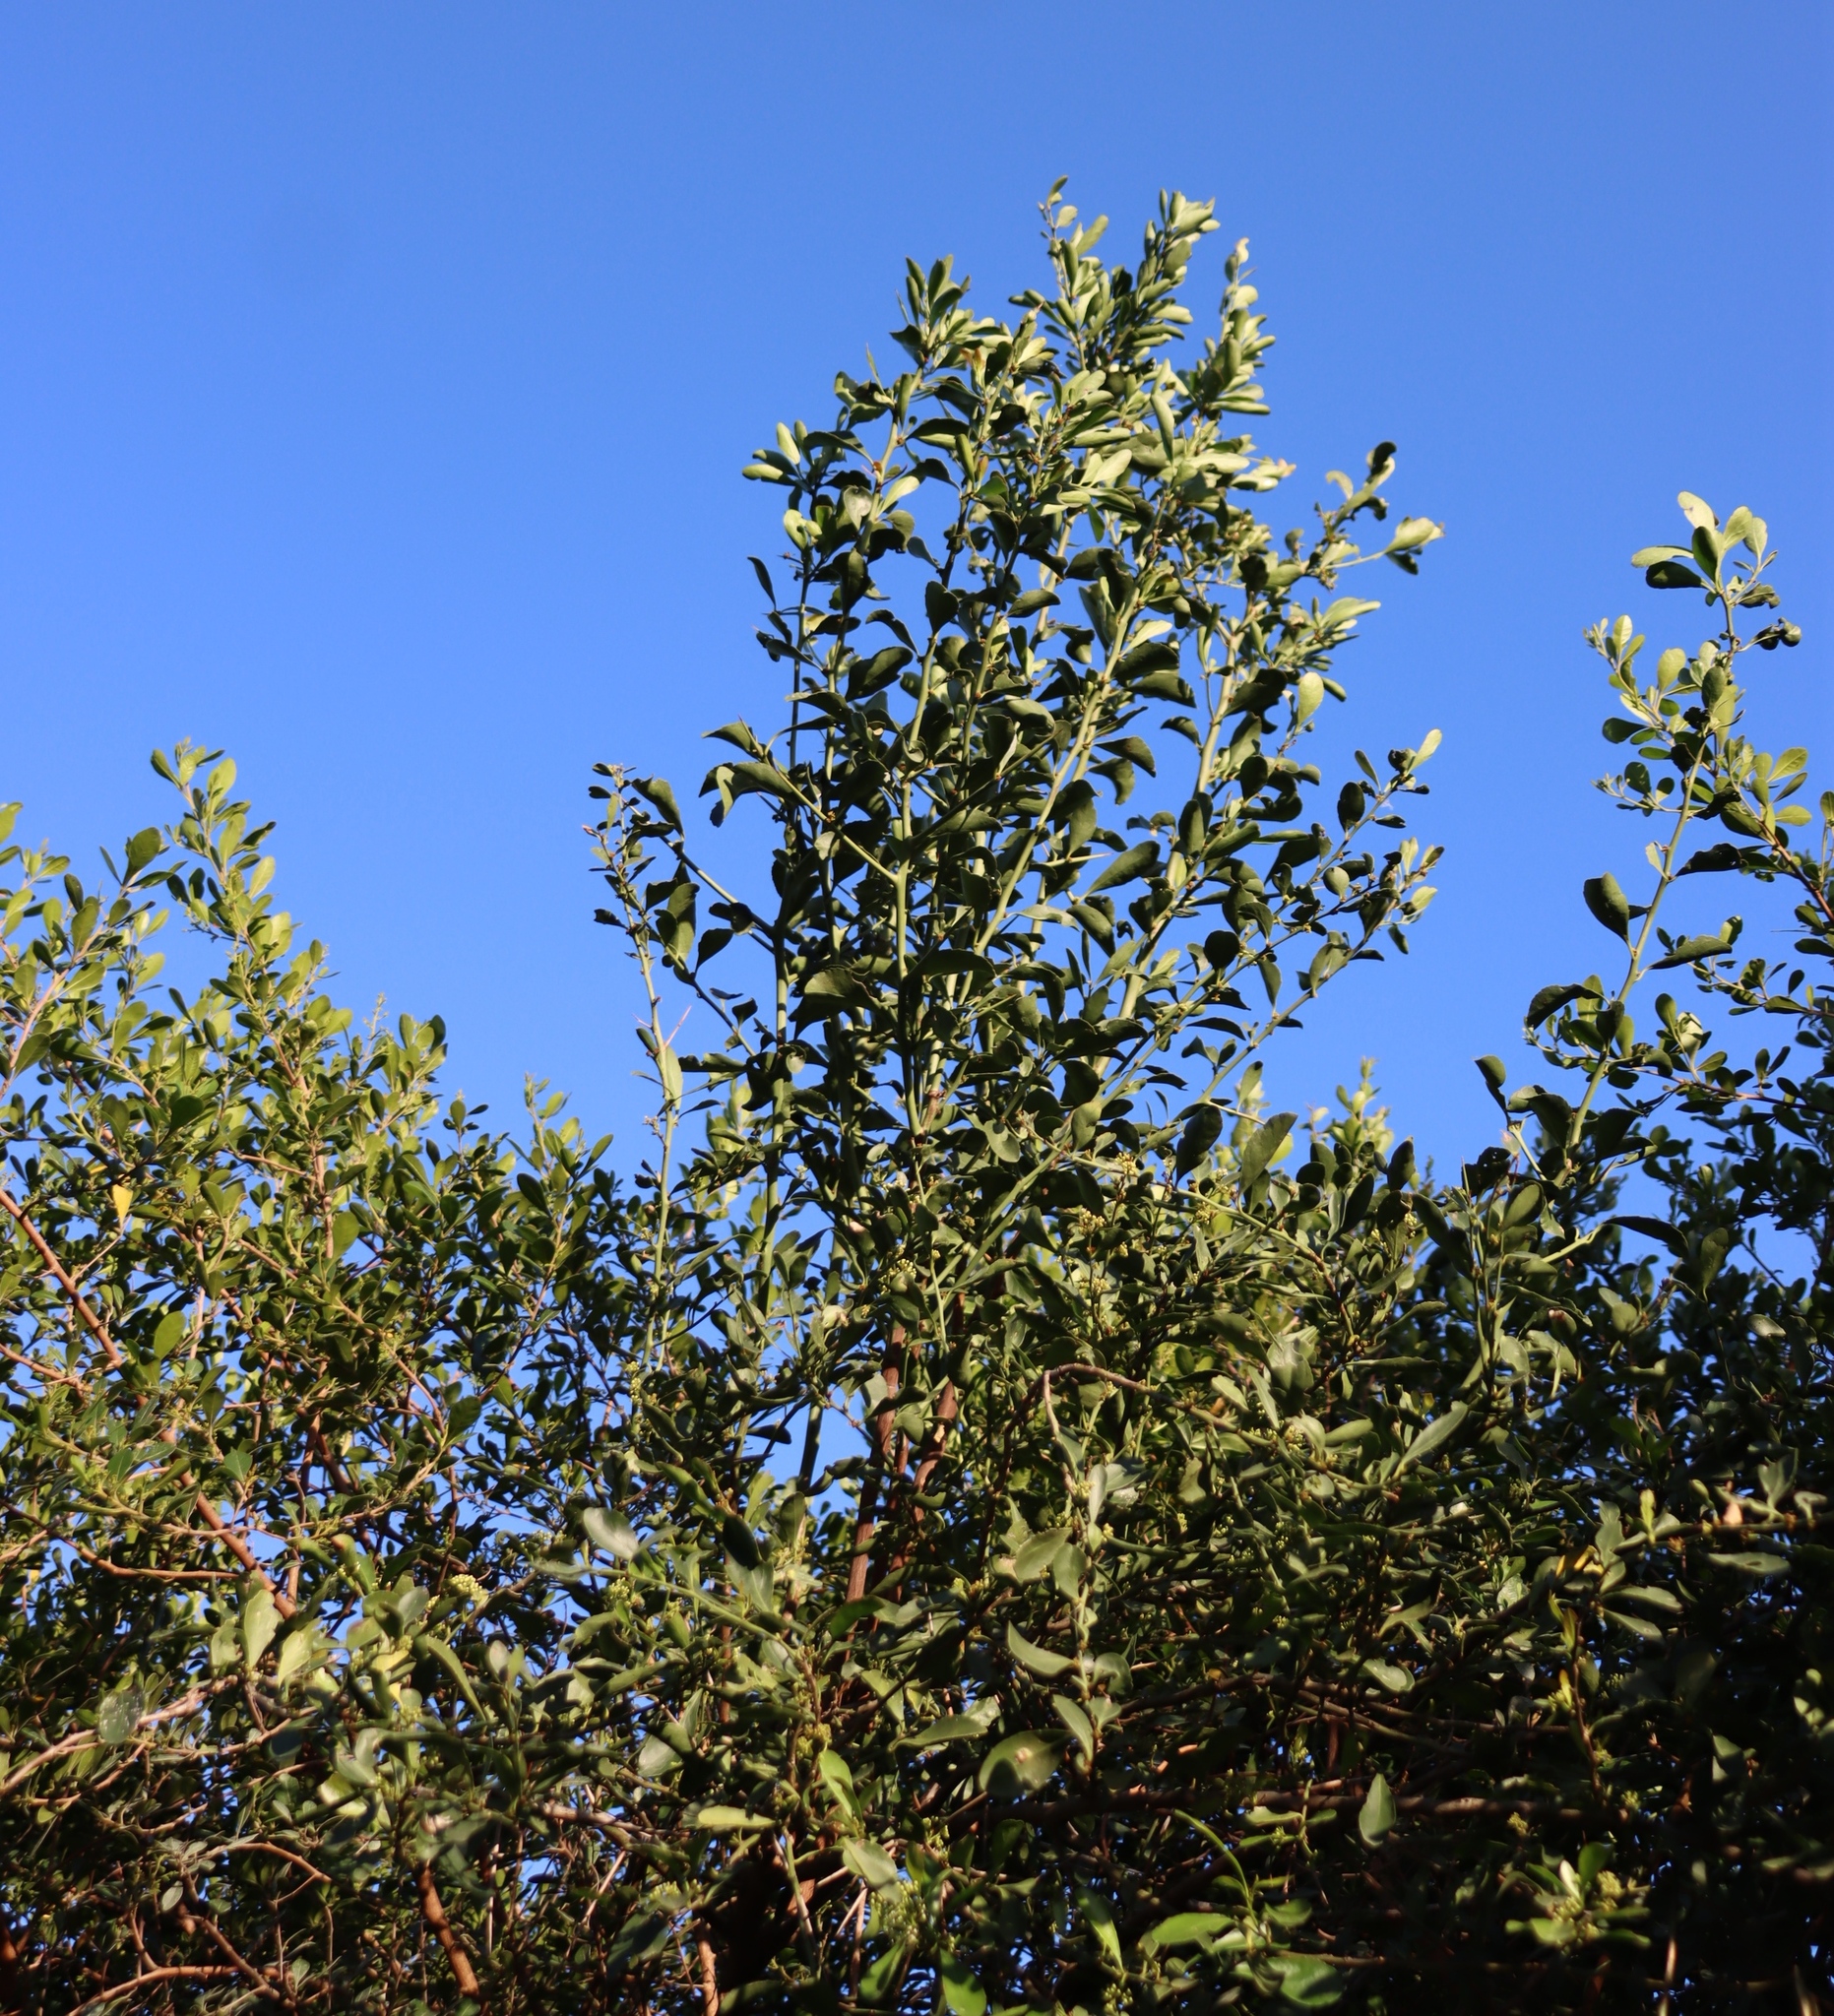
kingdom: Plantae
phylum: Tracheophyta
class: Magnoliopsida
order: Celastrales
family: Celastraceae
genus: Gymnosporia
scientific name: Gymnosporia buxifolia
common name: Common spike-thorn
